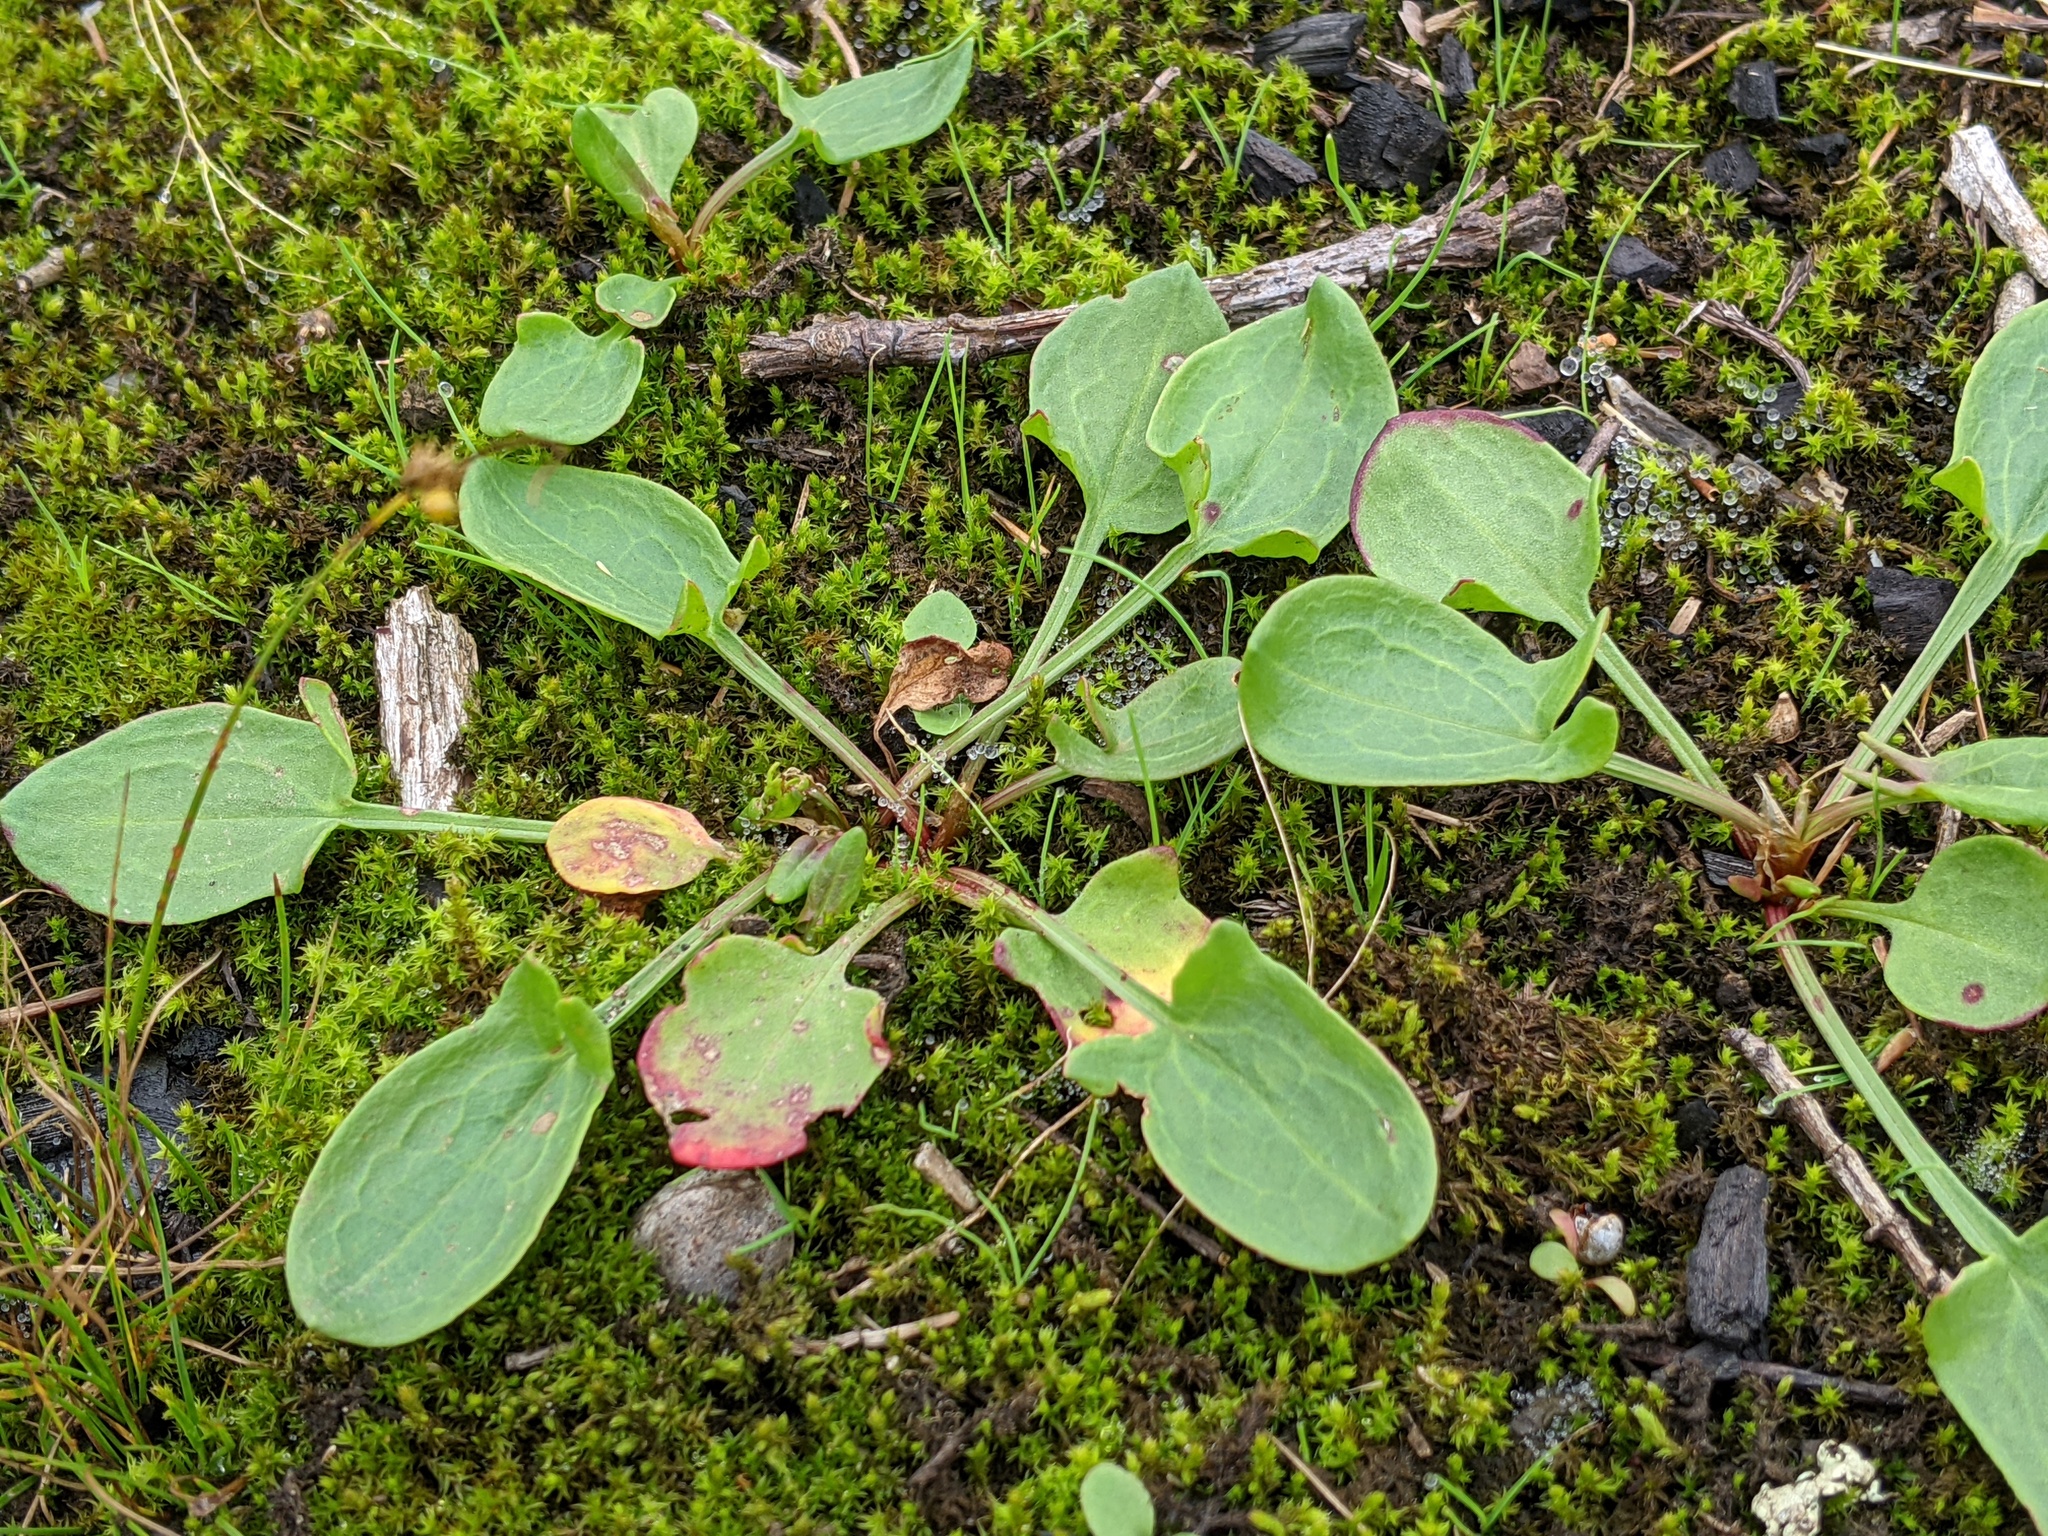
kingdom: Plantae
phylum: Tracheophyta
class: Magnoliopsida
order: Caryophyllales
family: Polygonaceae
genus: Rumex
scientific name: Rumex acetosella
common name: Common sheep sorrel
